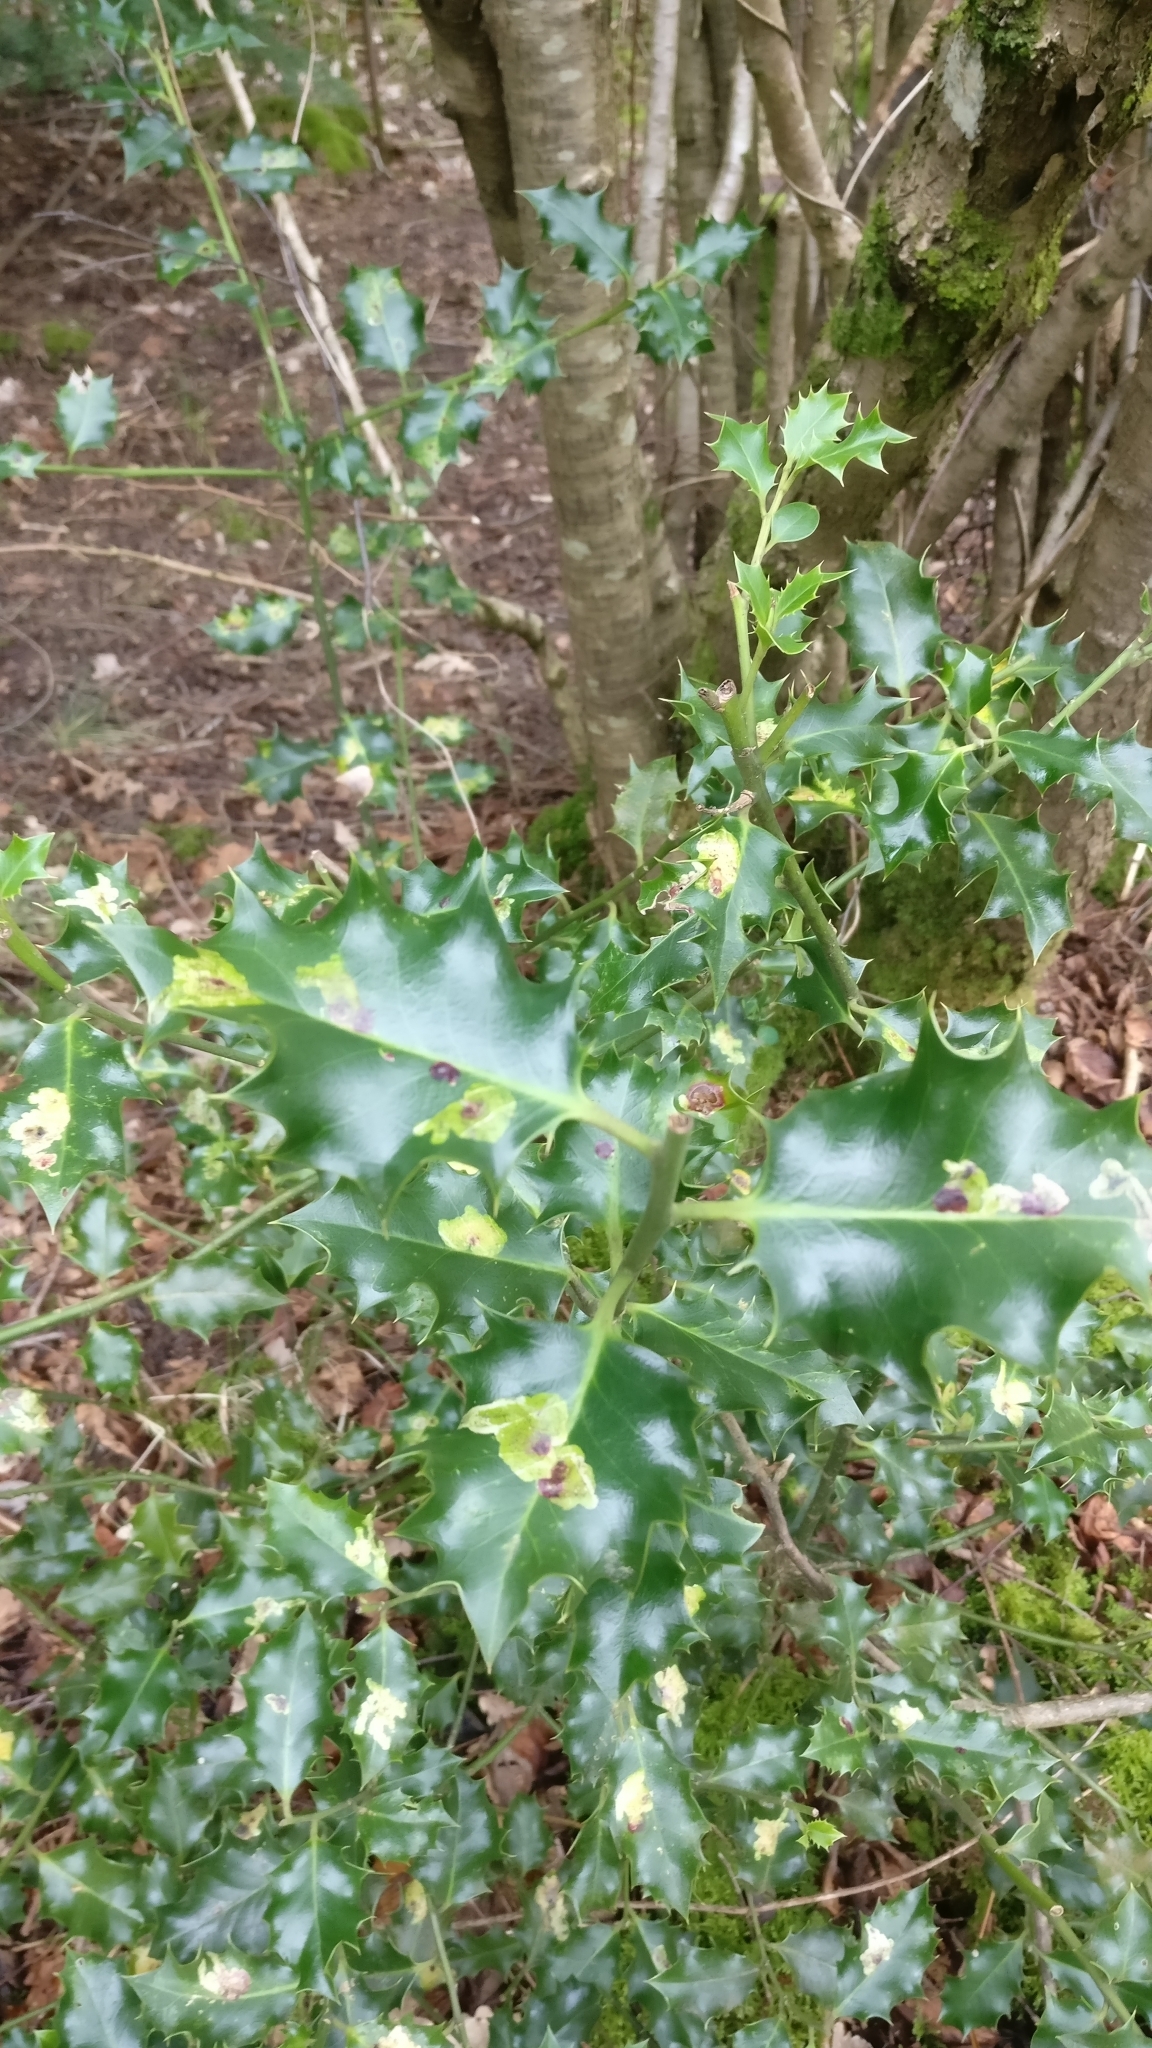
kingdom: Plantae
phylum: Tracheophyta
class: Magnoliopsida
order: Aquifoliales
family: Aquifoliaceae
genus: Ilex
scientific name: Ilex aquifolium
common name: English holly
